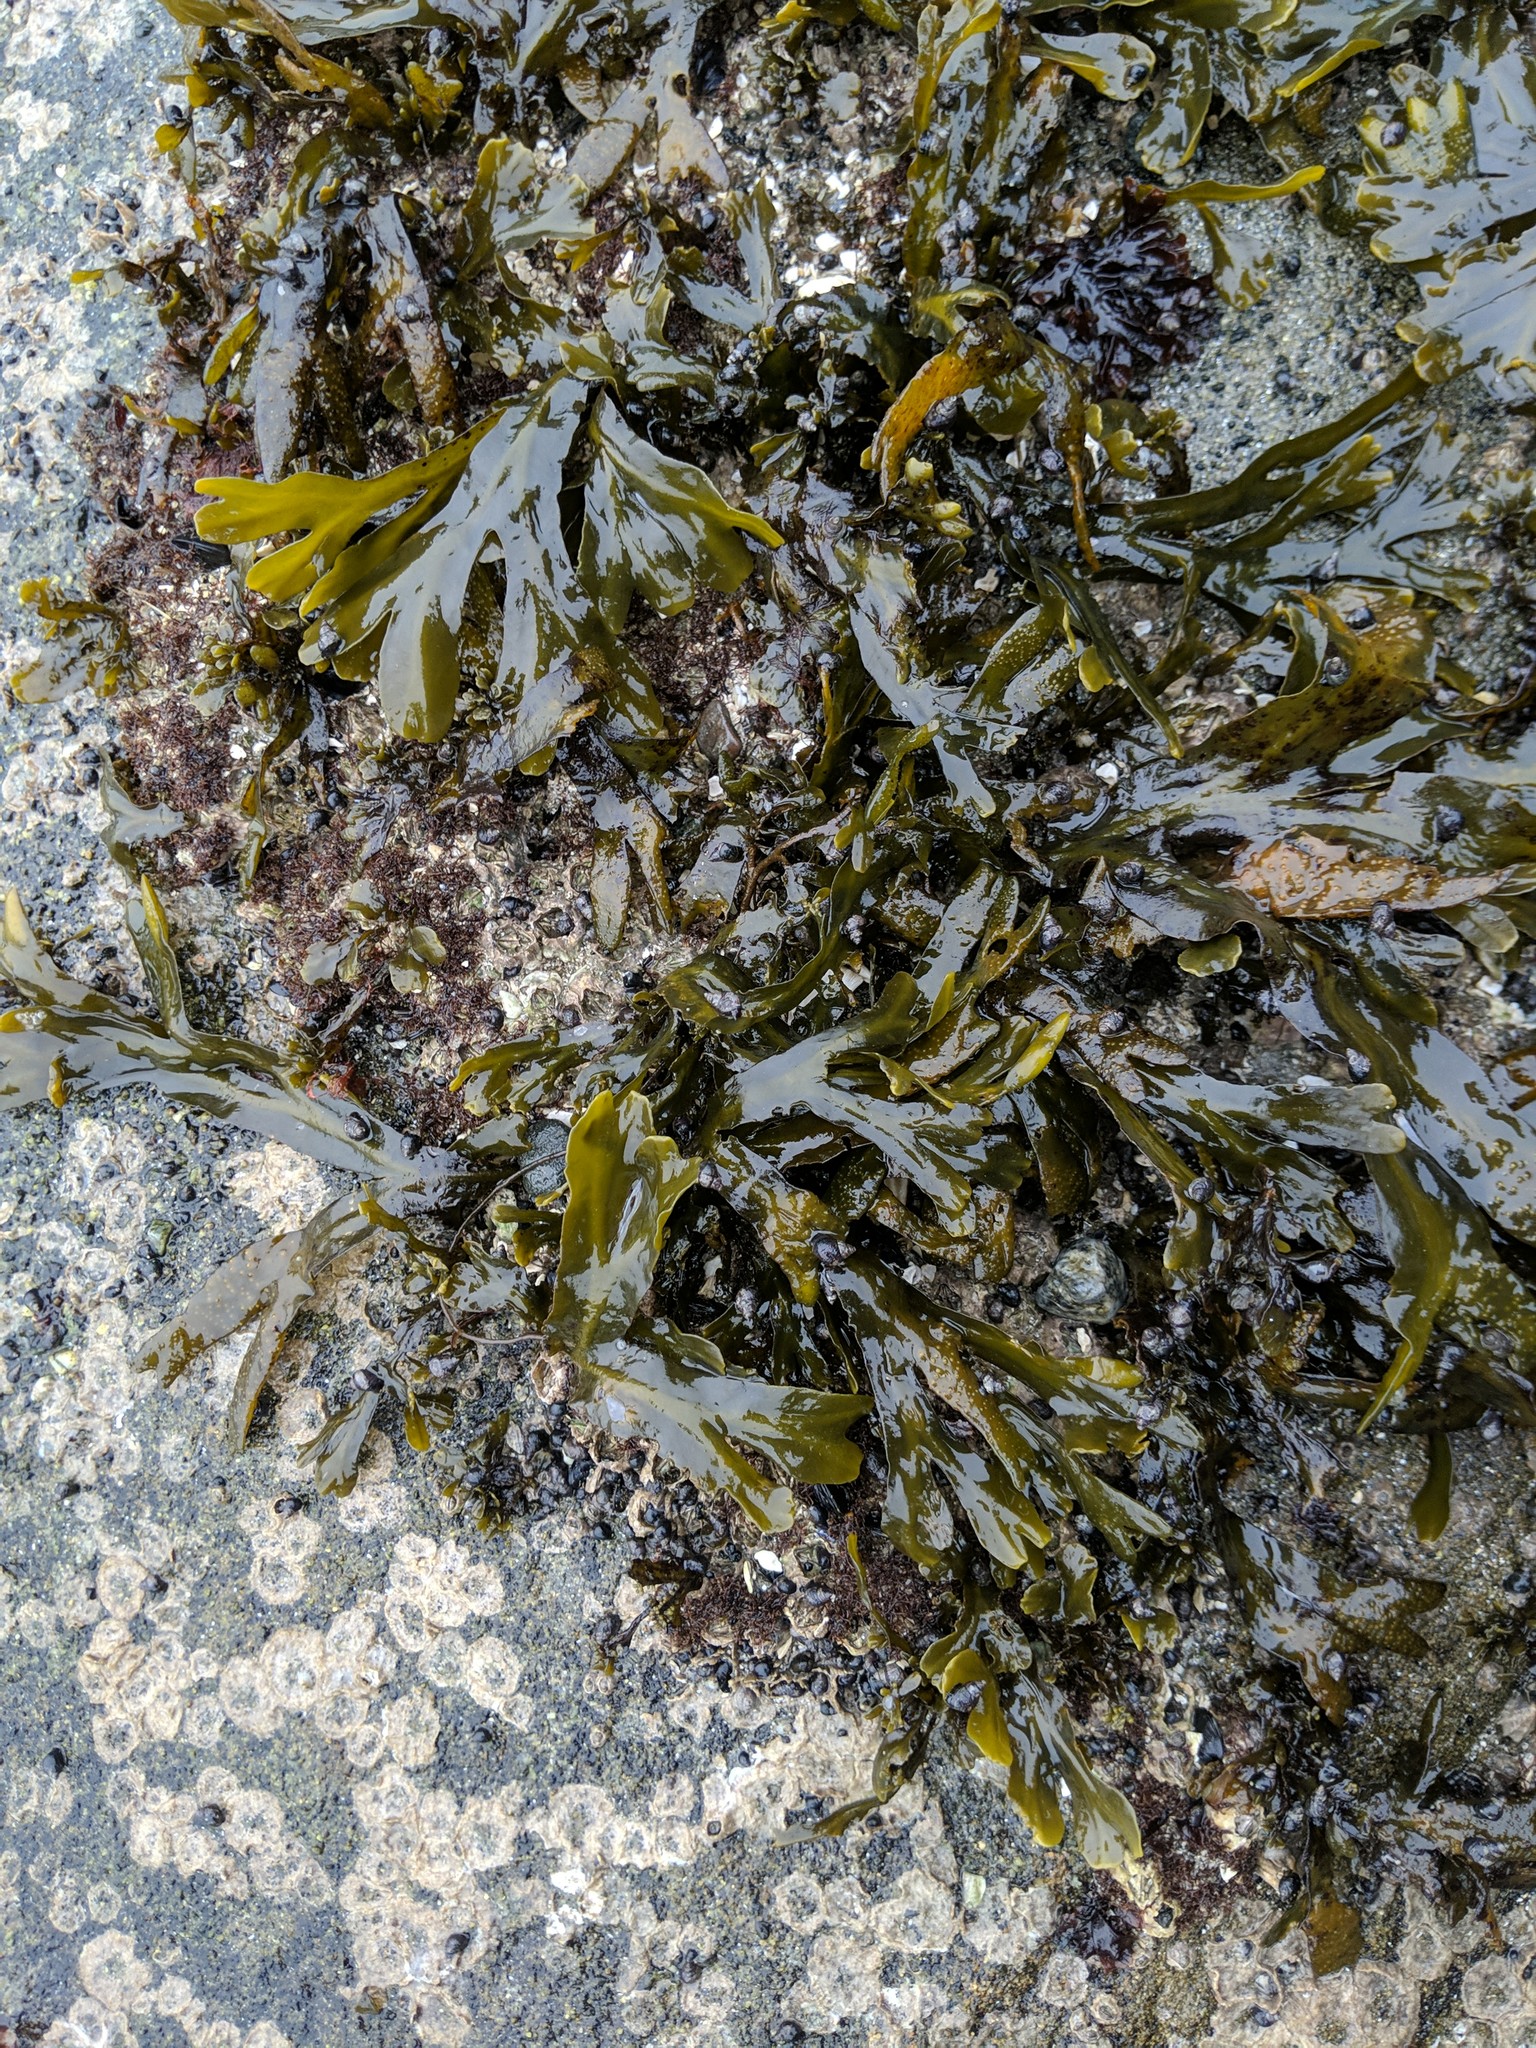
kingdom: Chromista
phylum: Ochrophyta
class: Phaeophyceae
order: Fucales
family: Fucaceae
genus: Fucus
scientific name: Fucus distichus
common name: Rockweed
